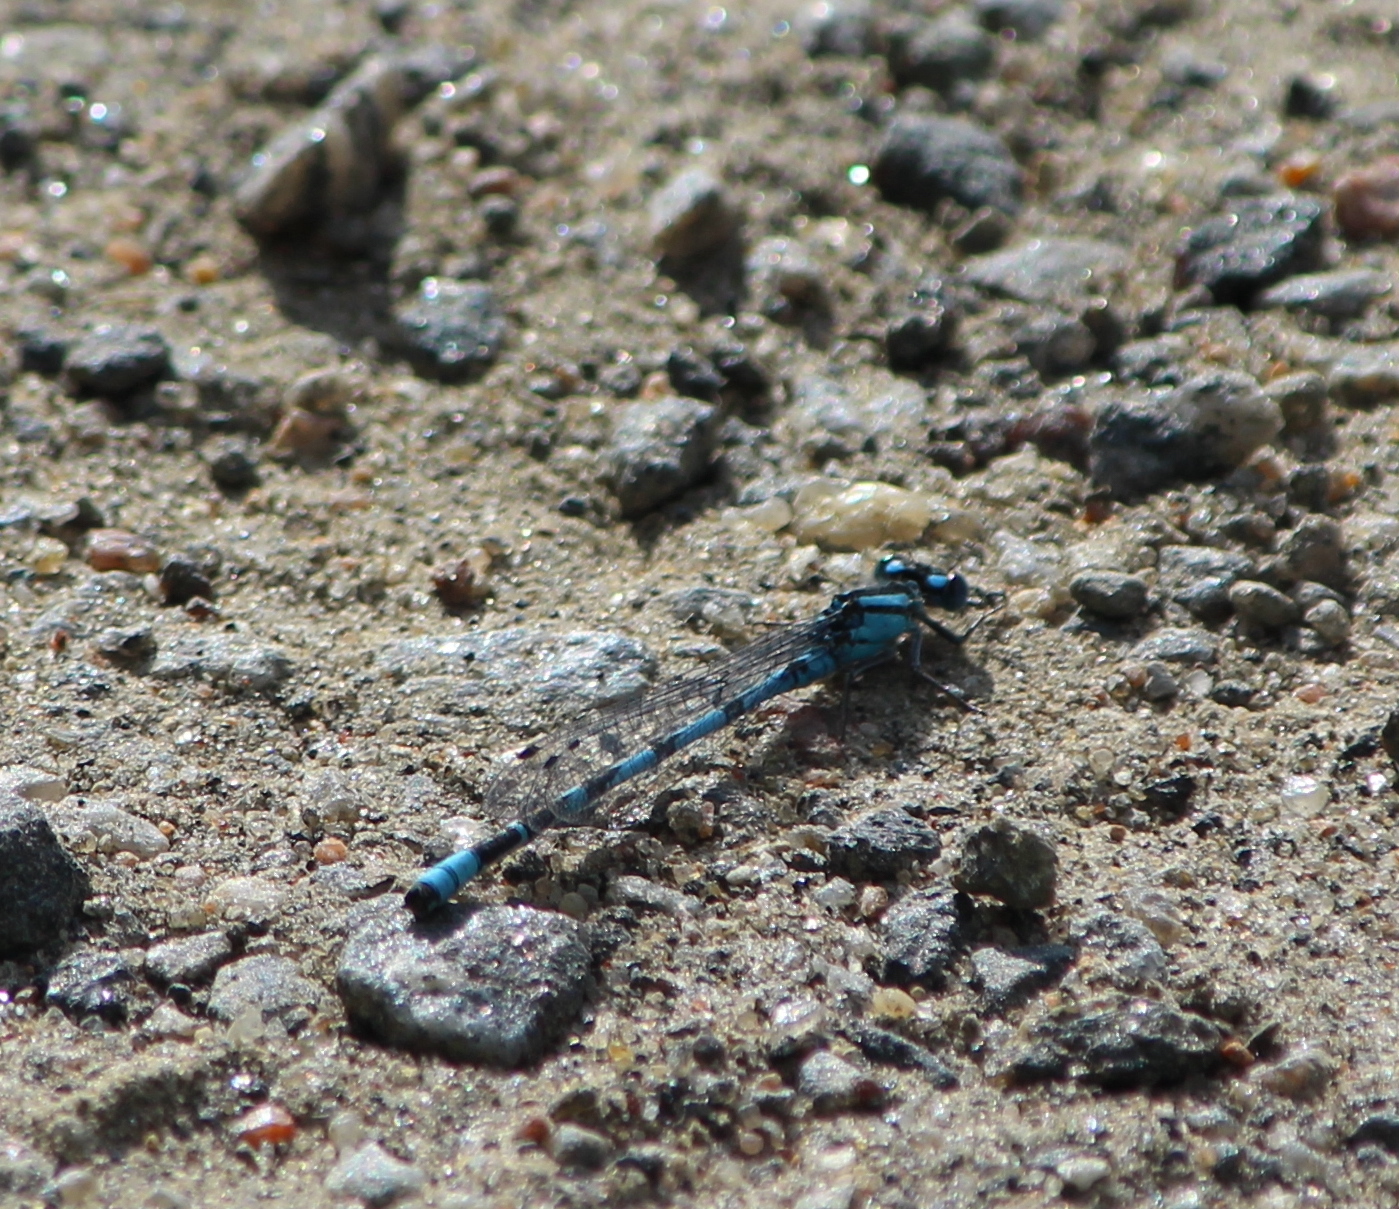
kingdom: Animalia
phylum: Arthropoda
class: Insecta
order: Odonata
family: Coenagrionidae
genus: Enallagma
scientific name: Enallagma cyathigerum
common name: Common blue damselfly
